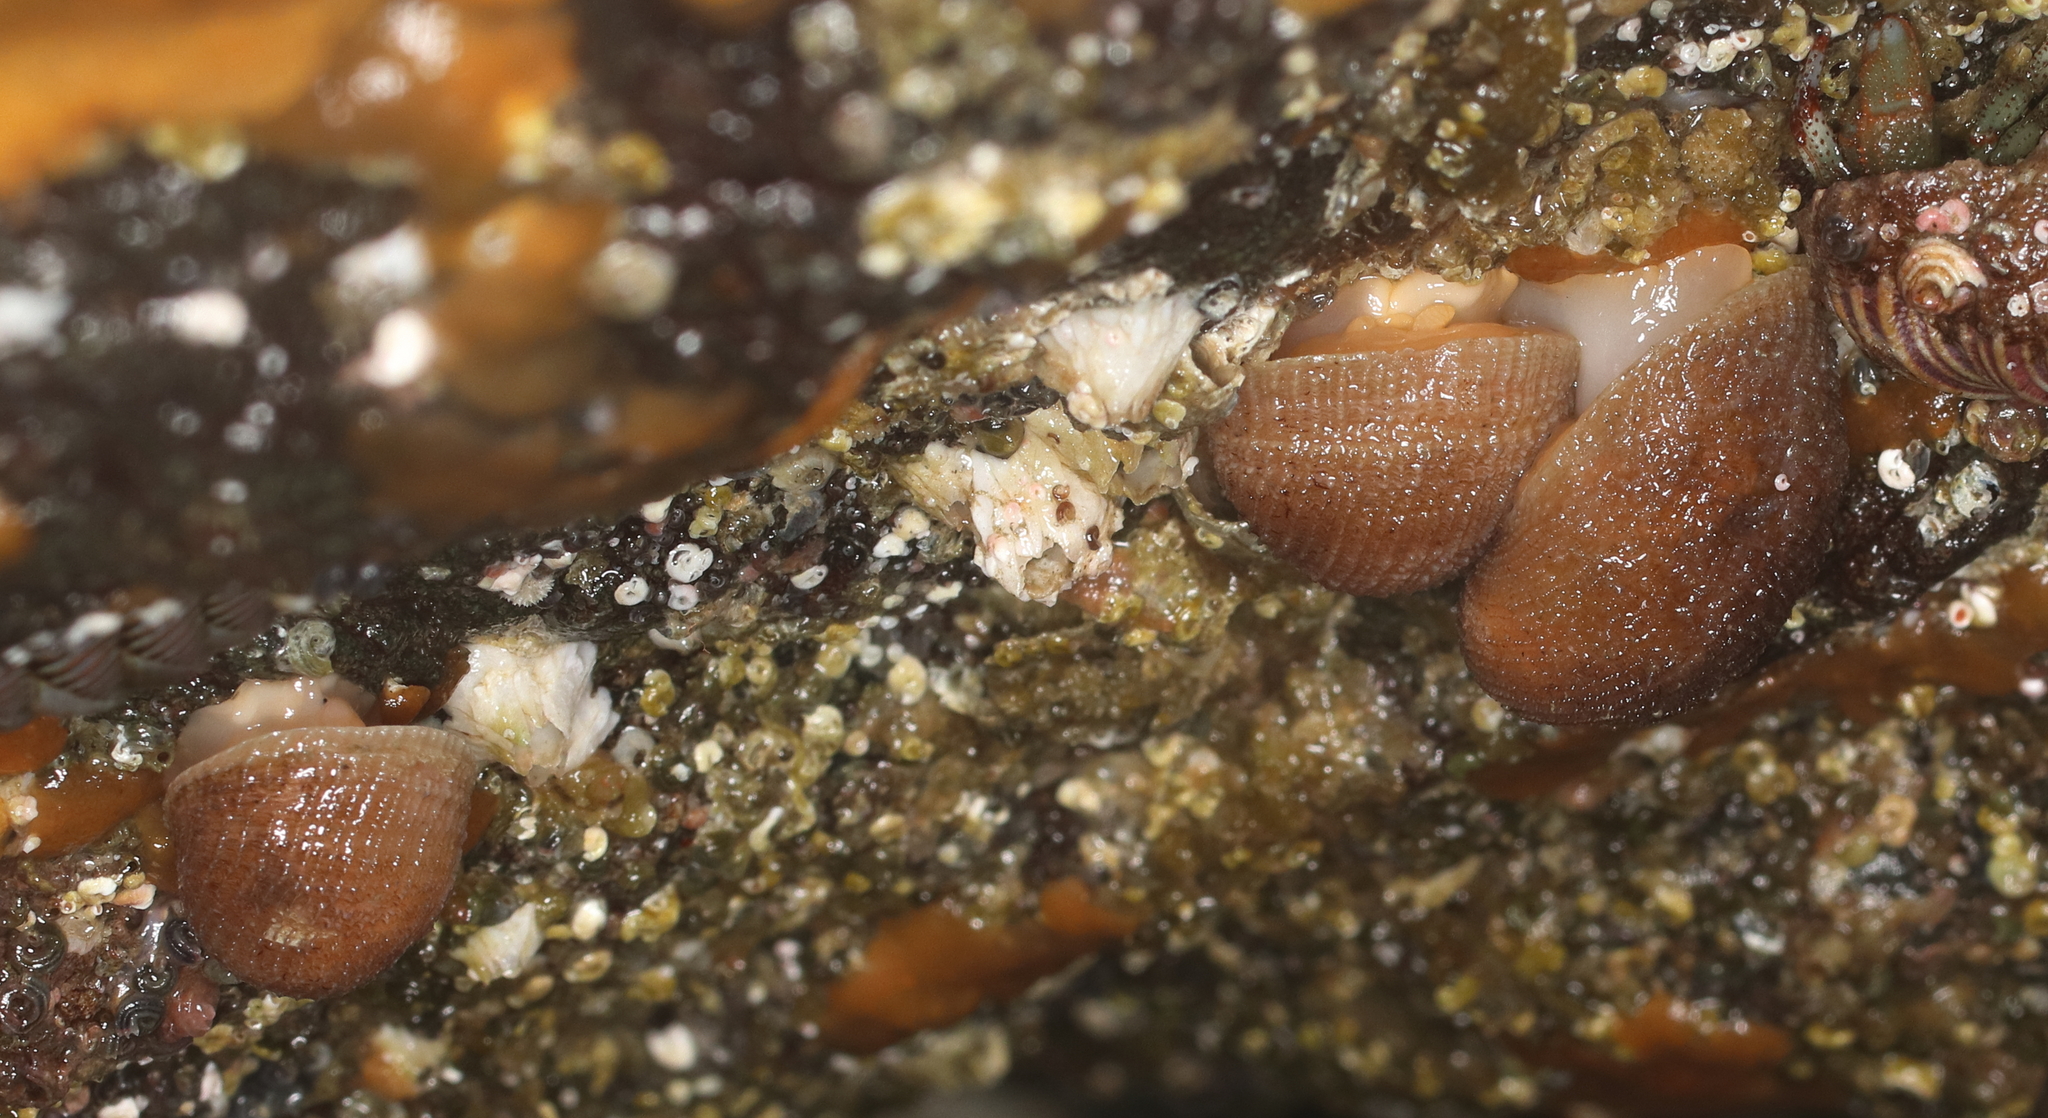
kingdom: Animalia
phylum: Mollusca
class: Gastropoda
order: Littorinimorpha
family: Velutinidae
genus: Velutina
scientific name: Velutina velutina
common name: Smooth lamellaria
